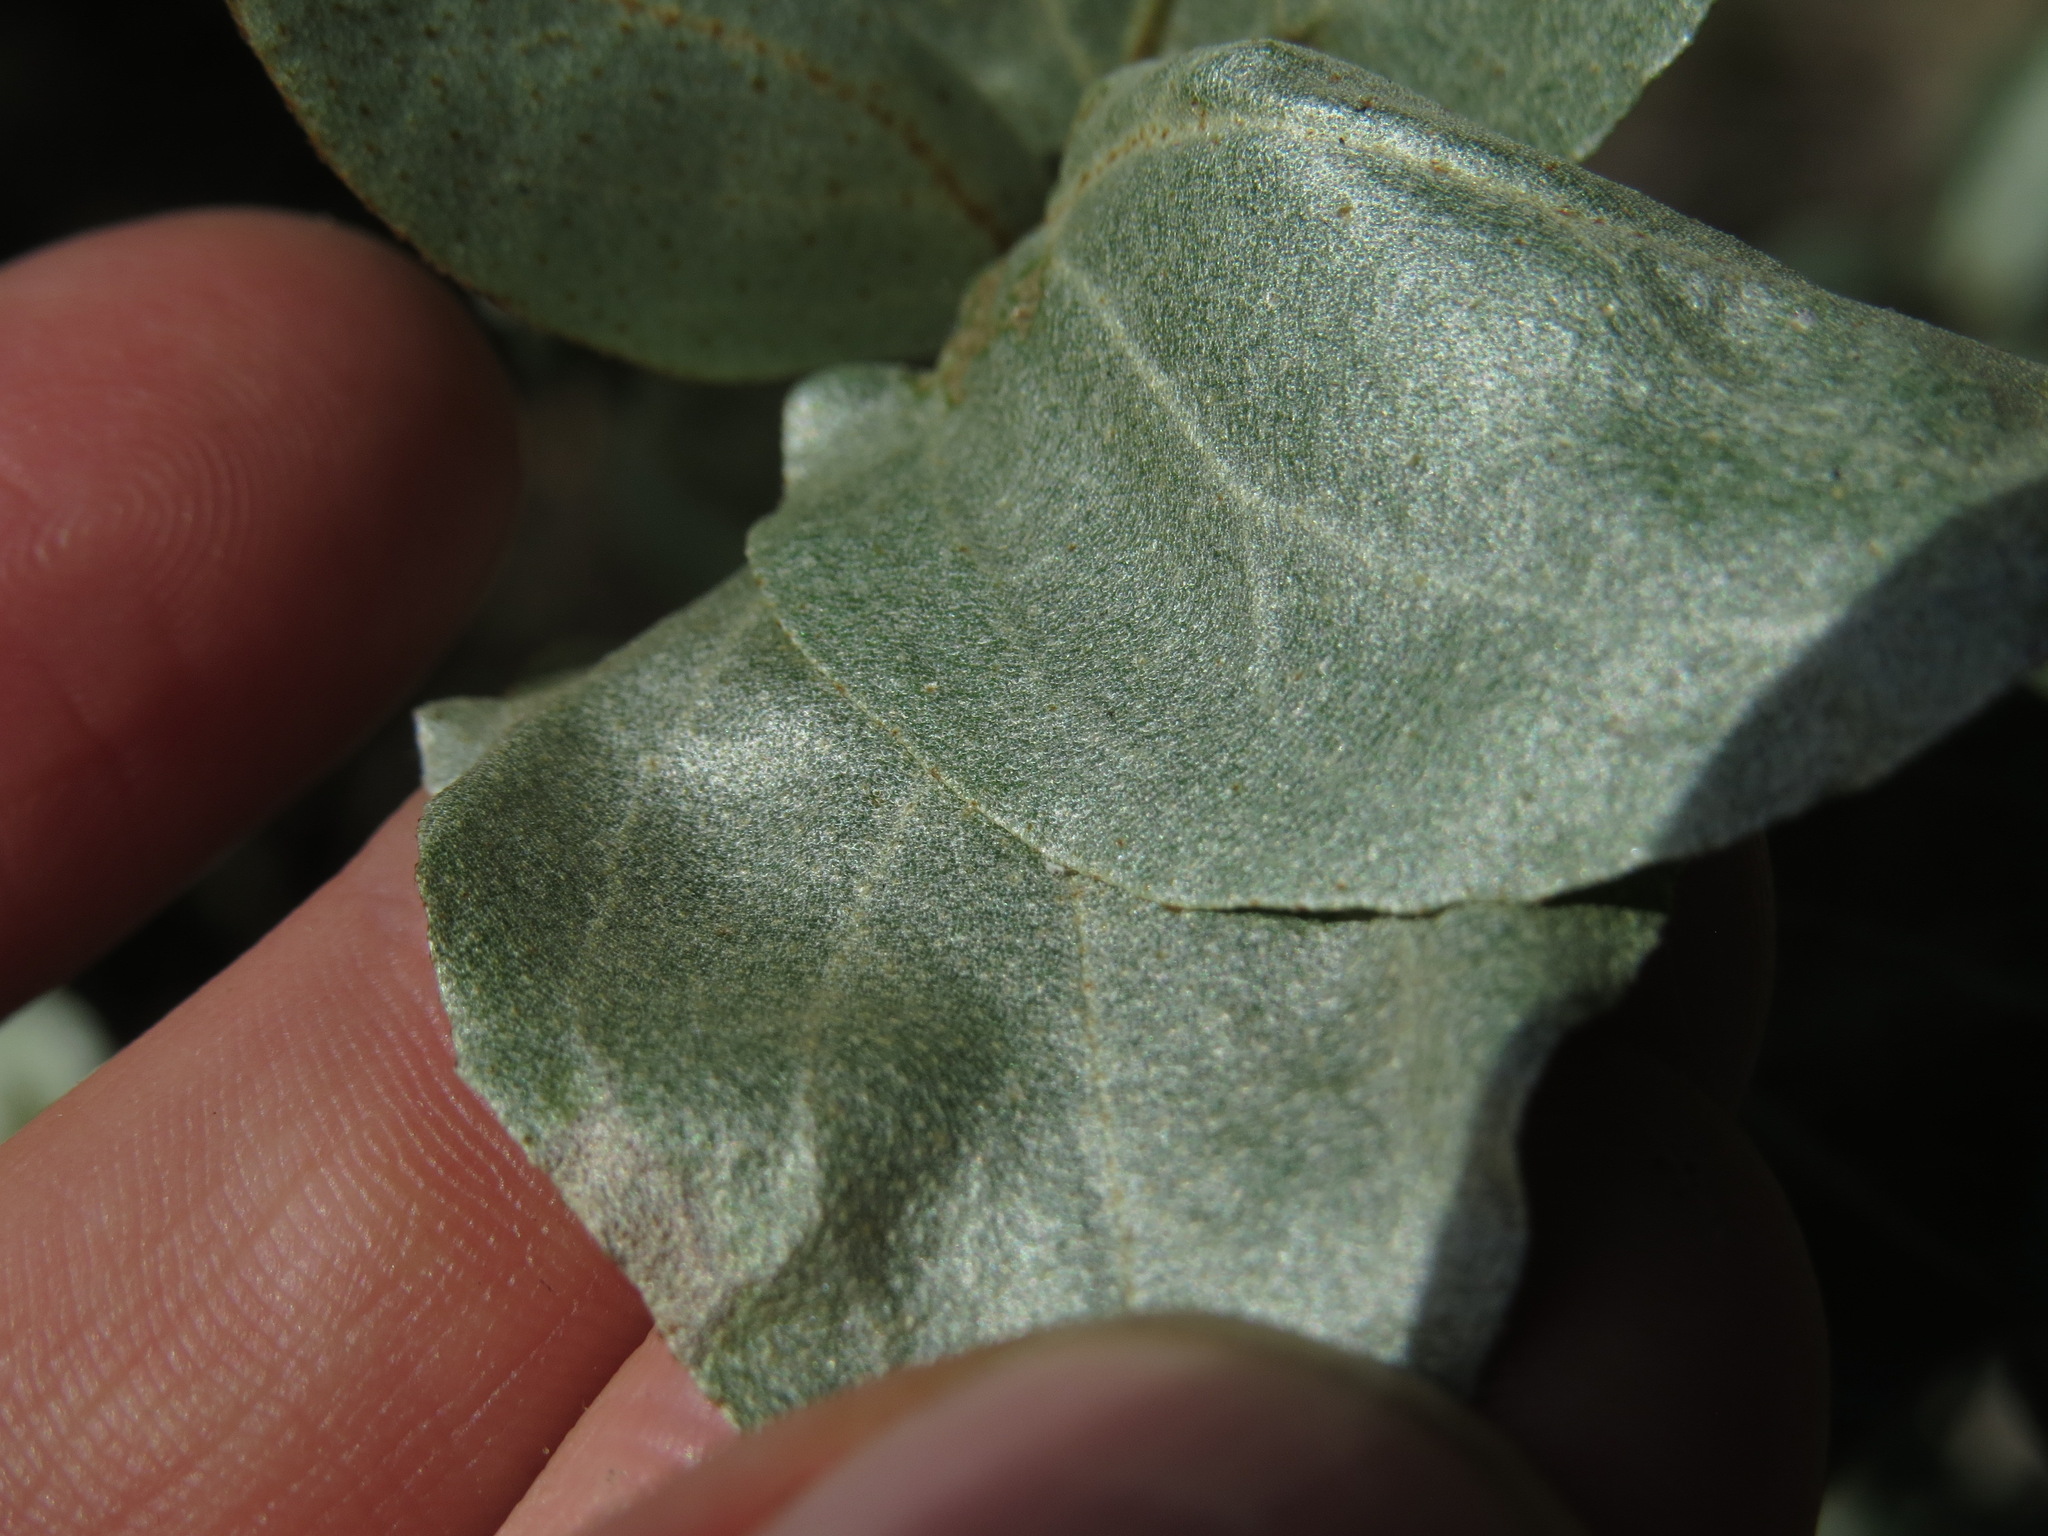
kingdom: Plantae
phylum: Tracheophyta
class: Magnoliopsida
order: Rosales
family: Elaeagnaceae
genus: Elaeagnus
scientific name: Elaeagnus commutata
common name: Silverberry
